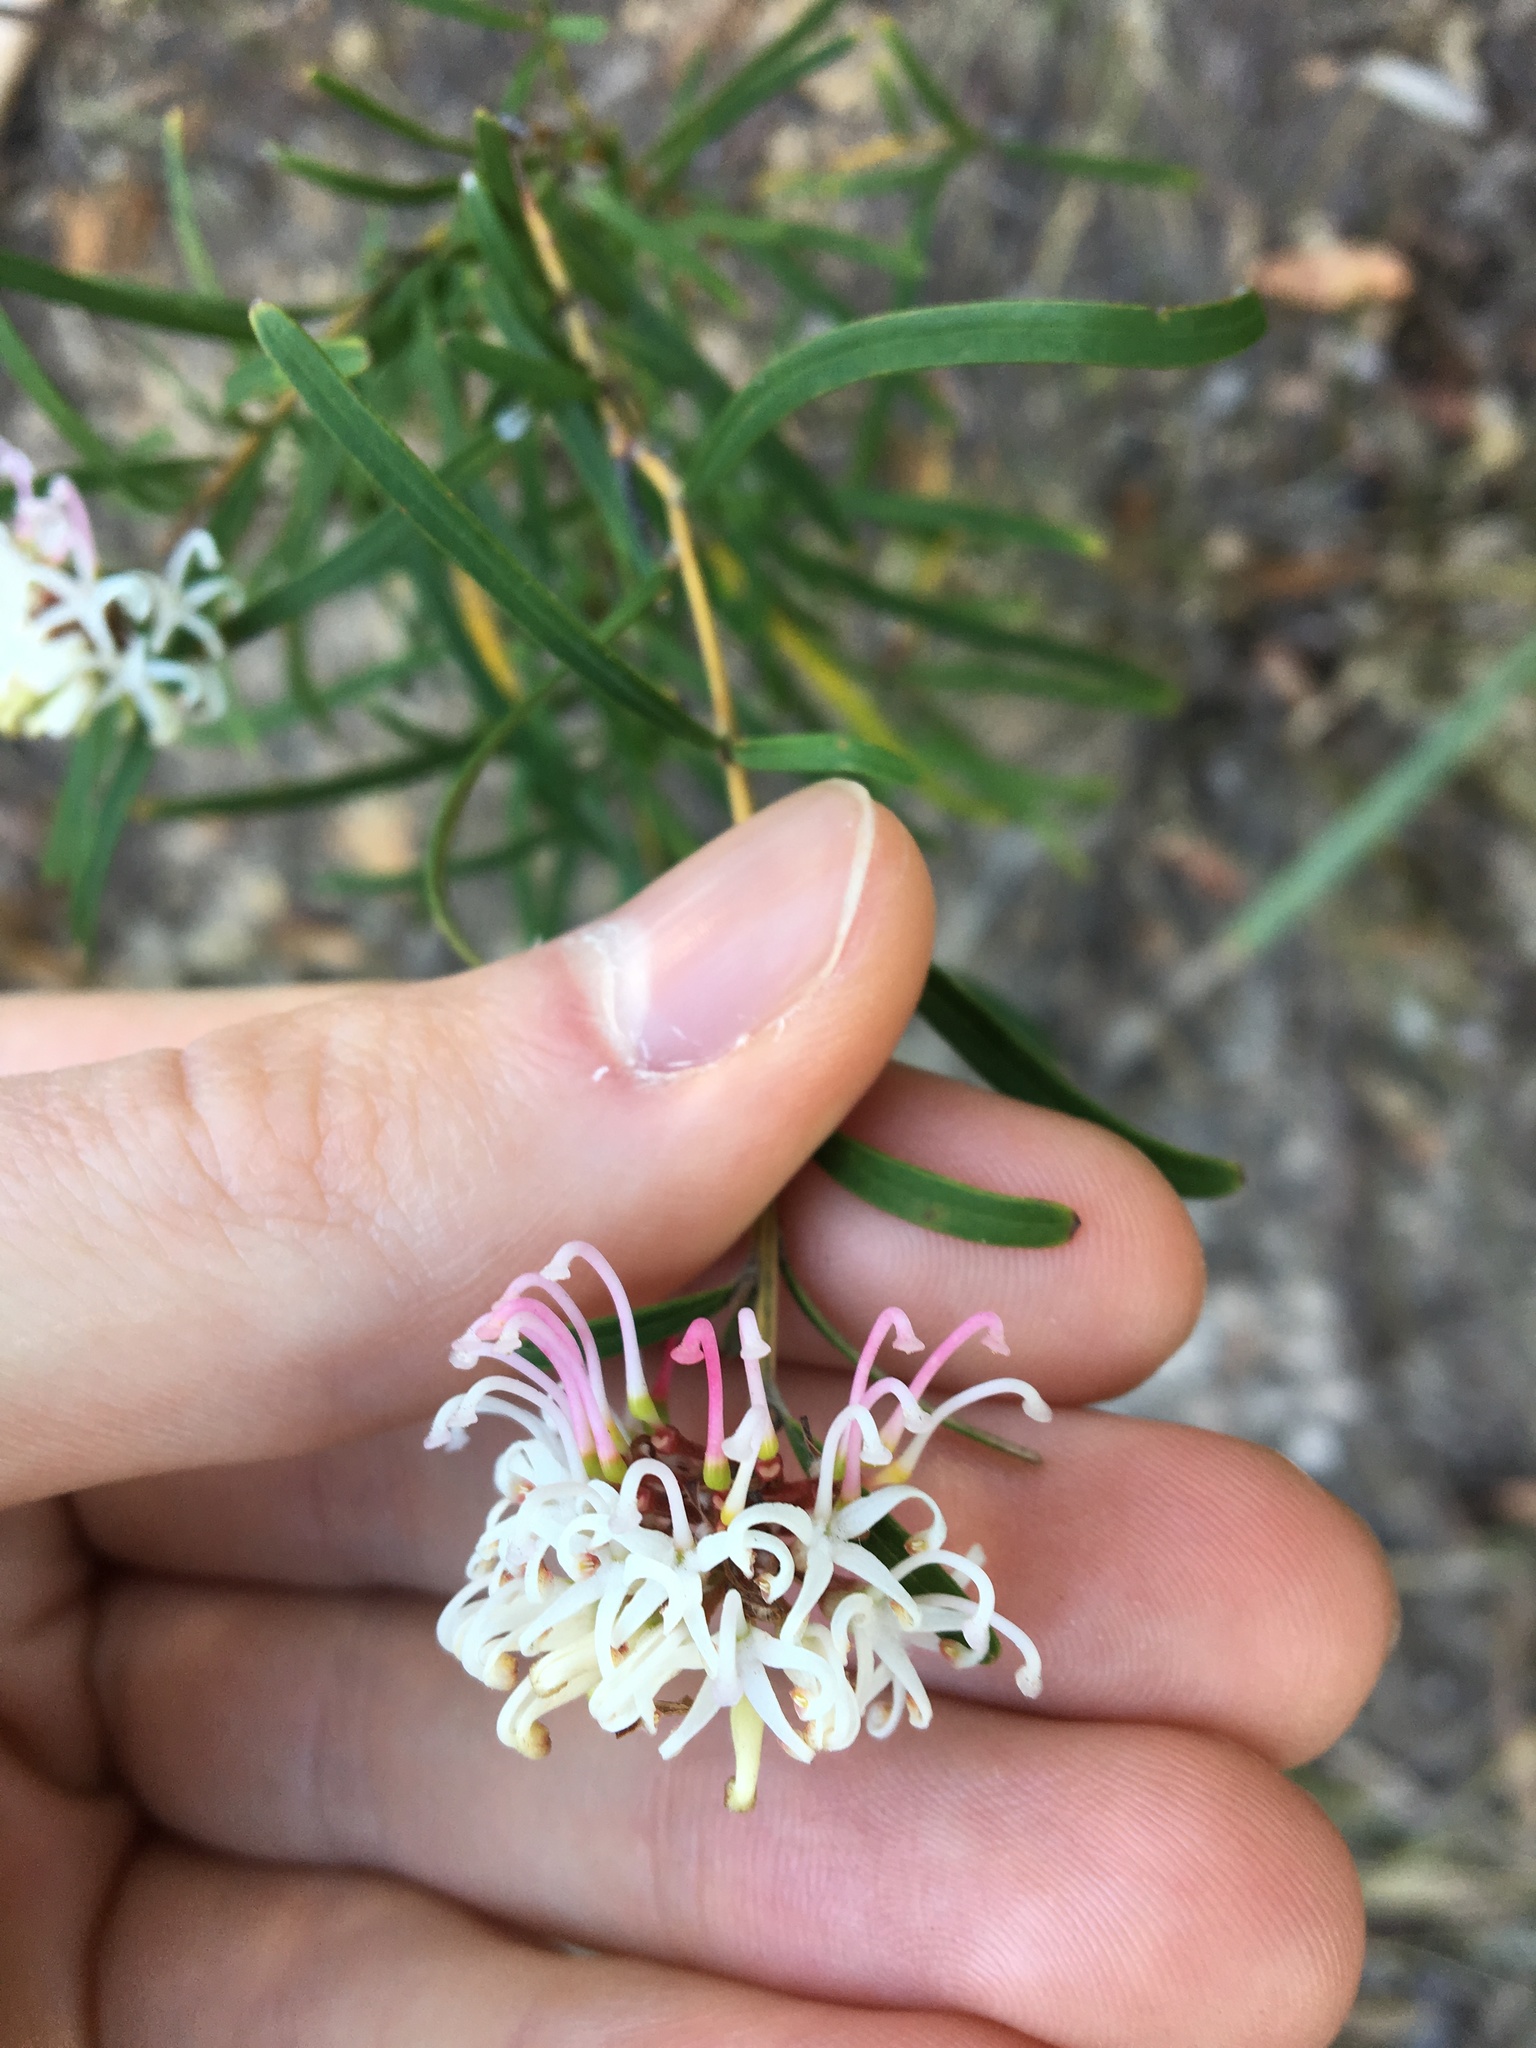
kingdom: Plantae
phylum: Tracheophyta
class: Magnoliopsida
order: Proteales
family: Proteaceae
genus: Grevillea
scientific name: Grevillea linearifolia
